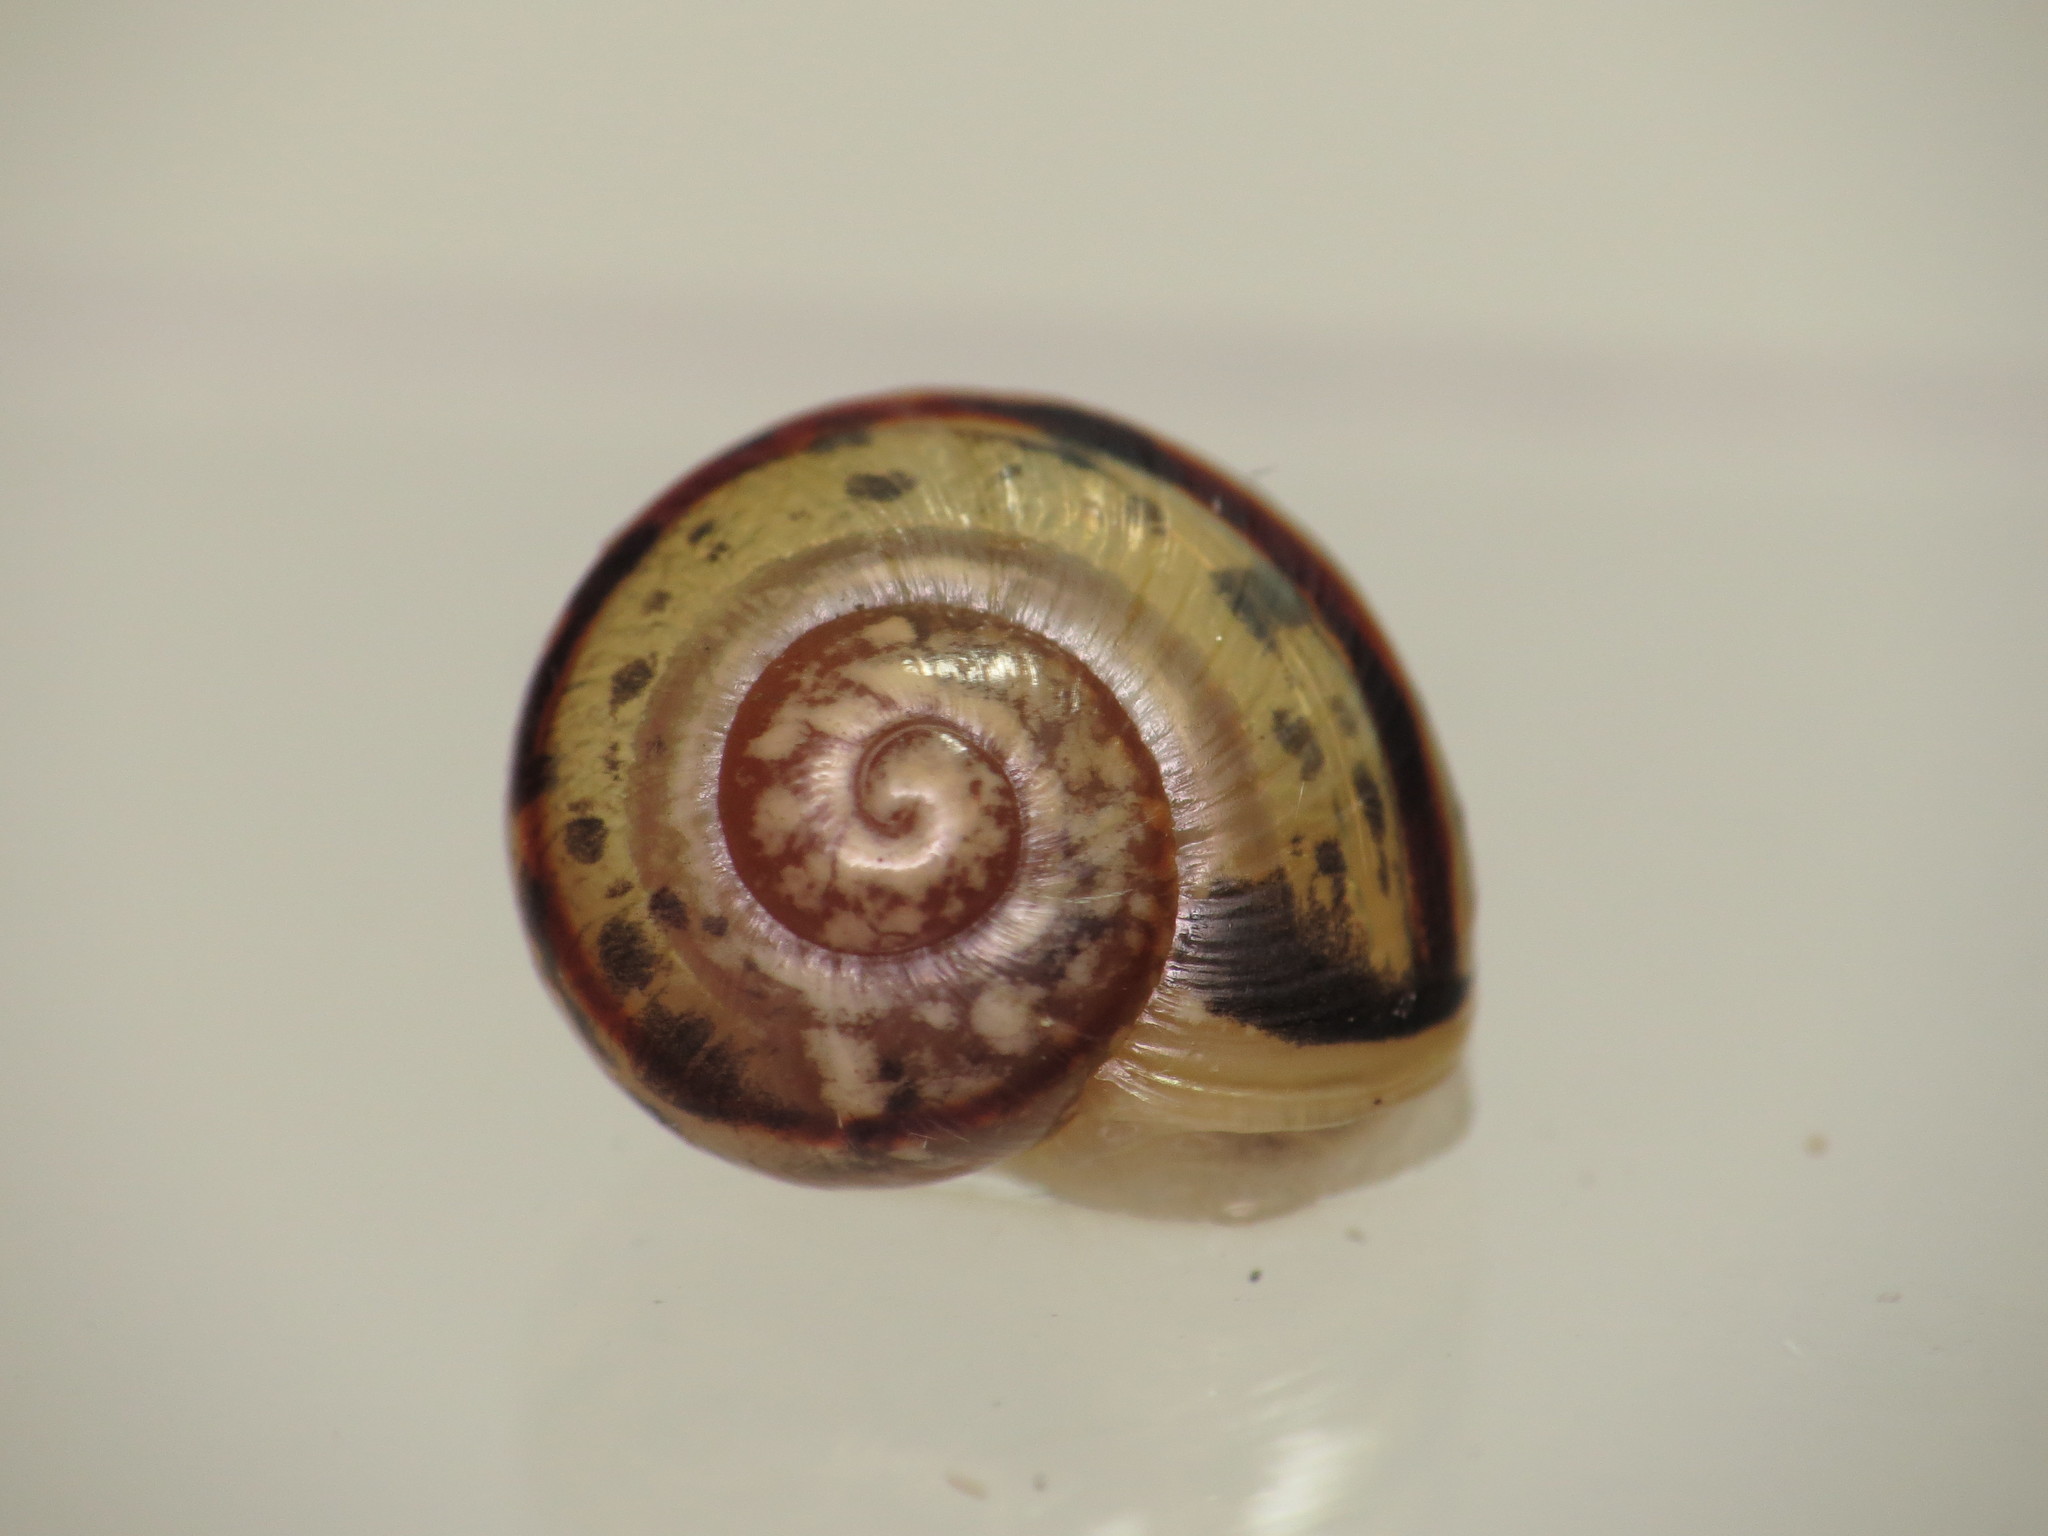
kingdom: Animalia
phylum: Mollusca
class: Gastropoda
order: Stylommatophora
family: Helicidae
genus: Cepaea
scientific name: Cepaea
